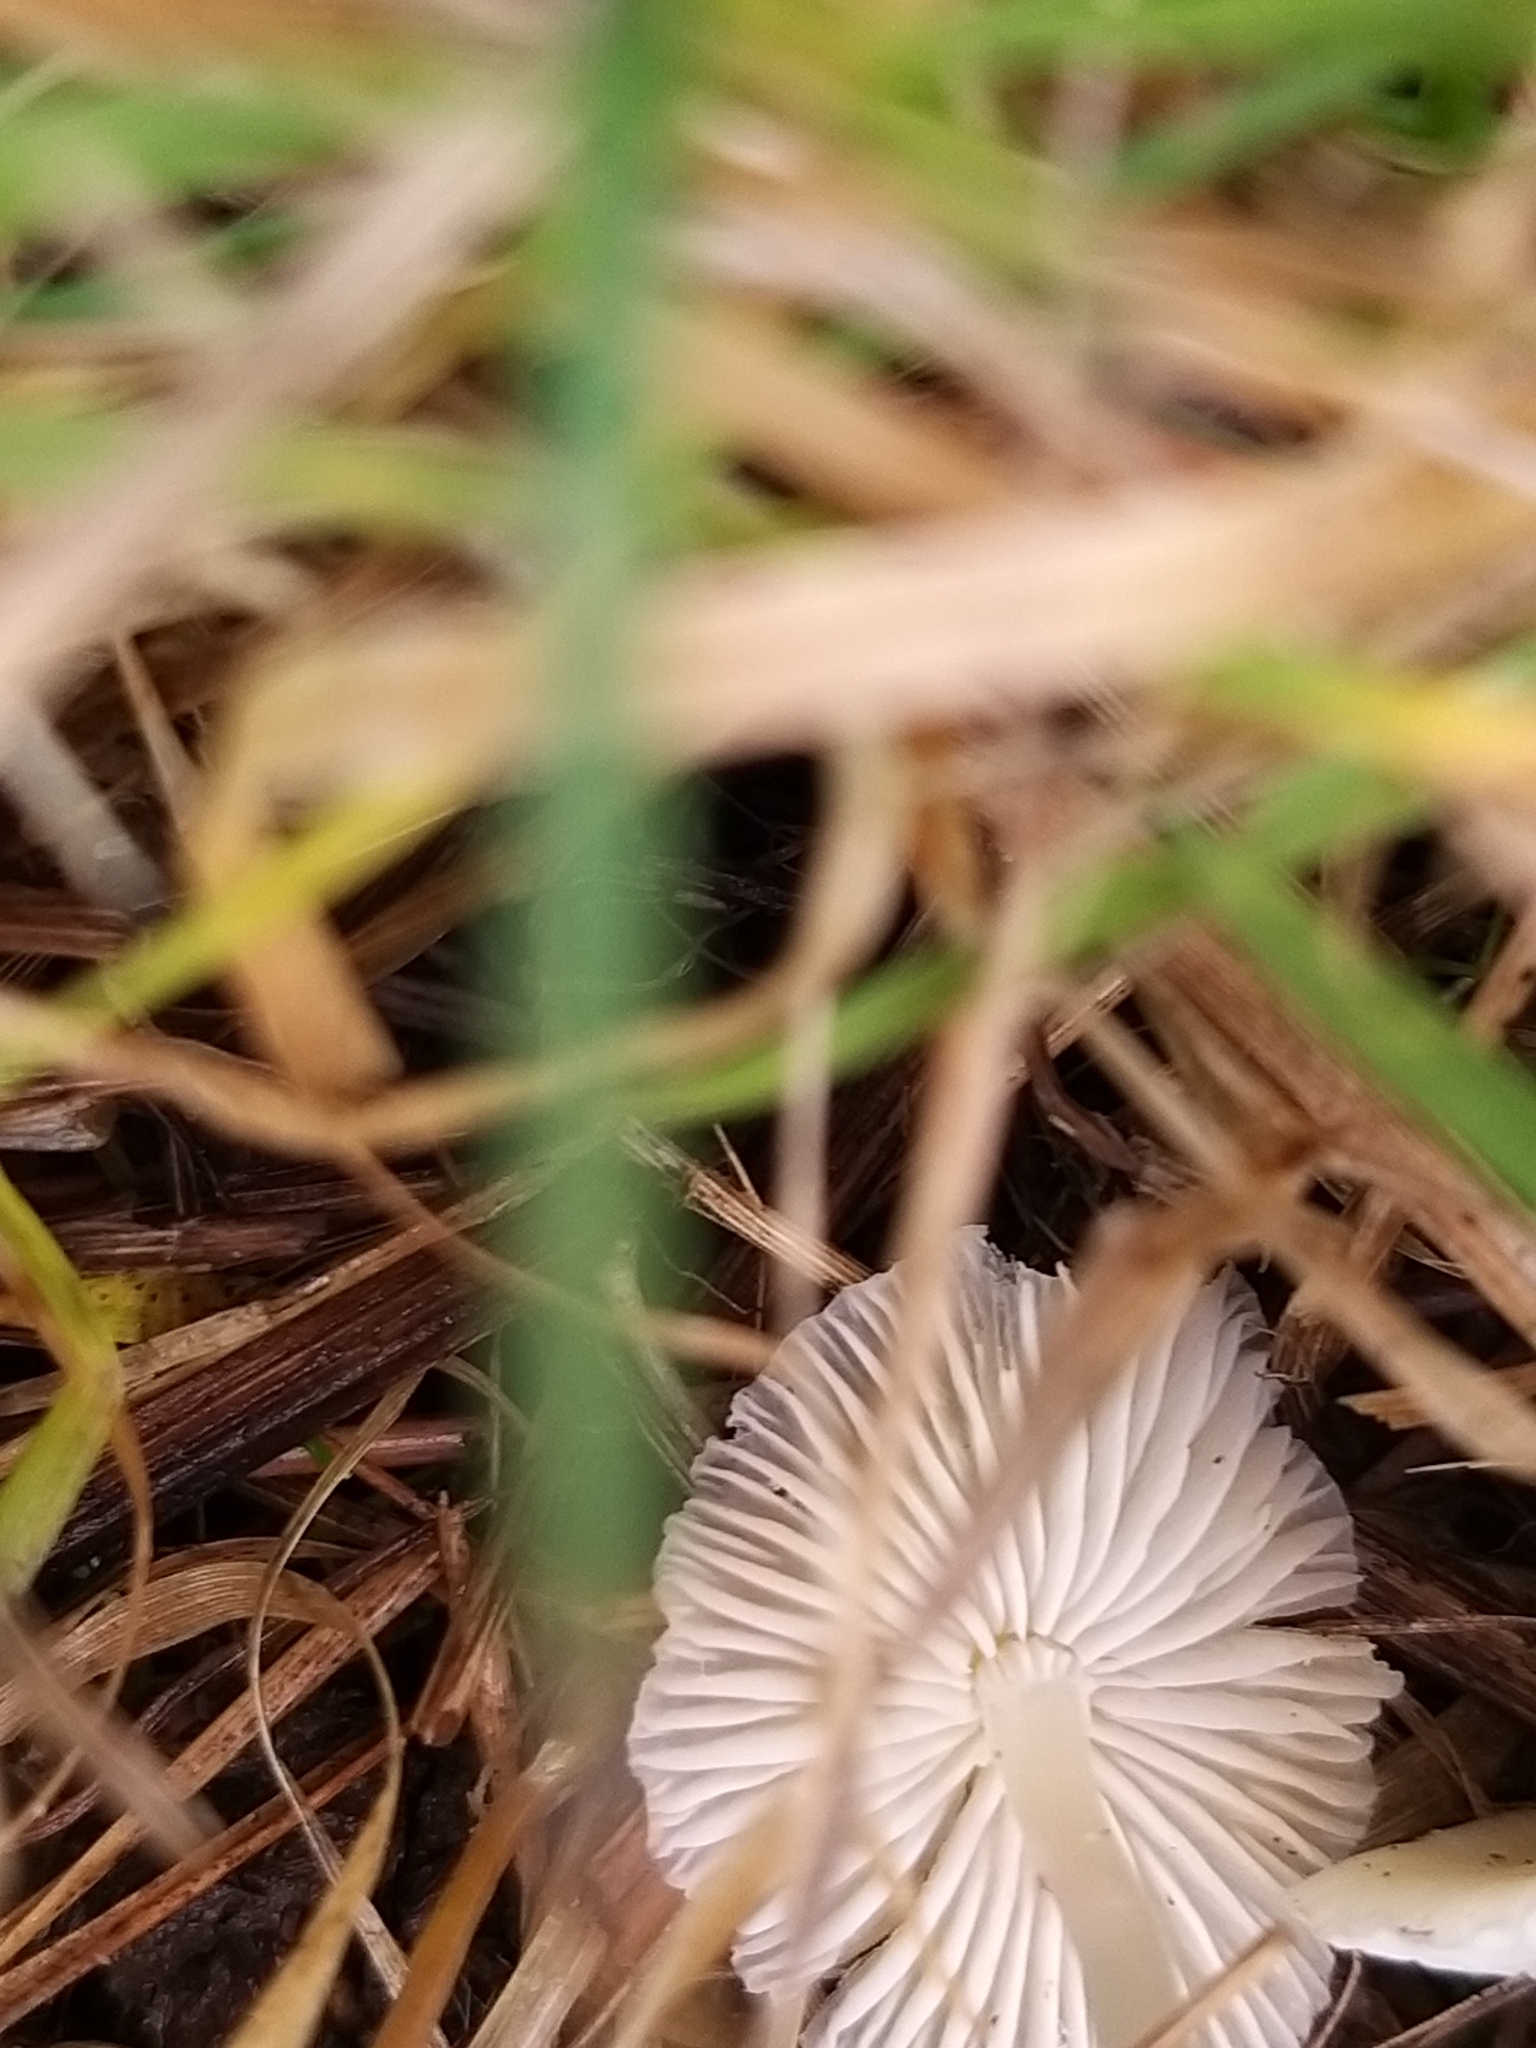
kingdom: Fungi
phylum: Basidiomycota
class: Agaricomycetes
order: Agaricales
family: Mycenaceae
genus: Atheniella
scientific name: Atheniella flavoalba
